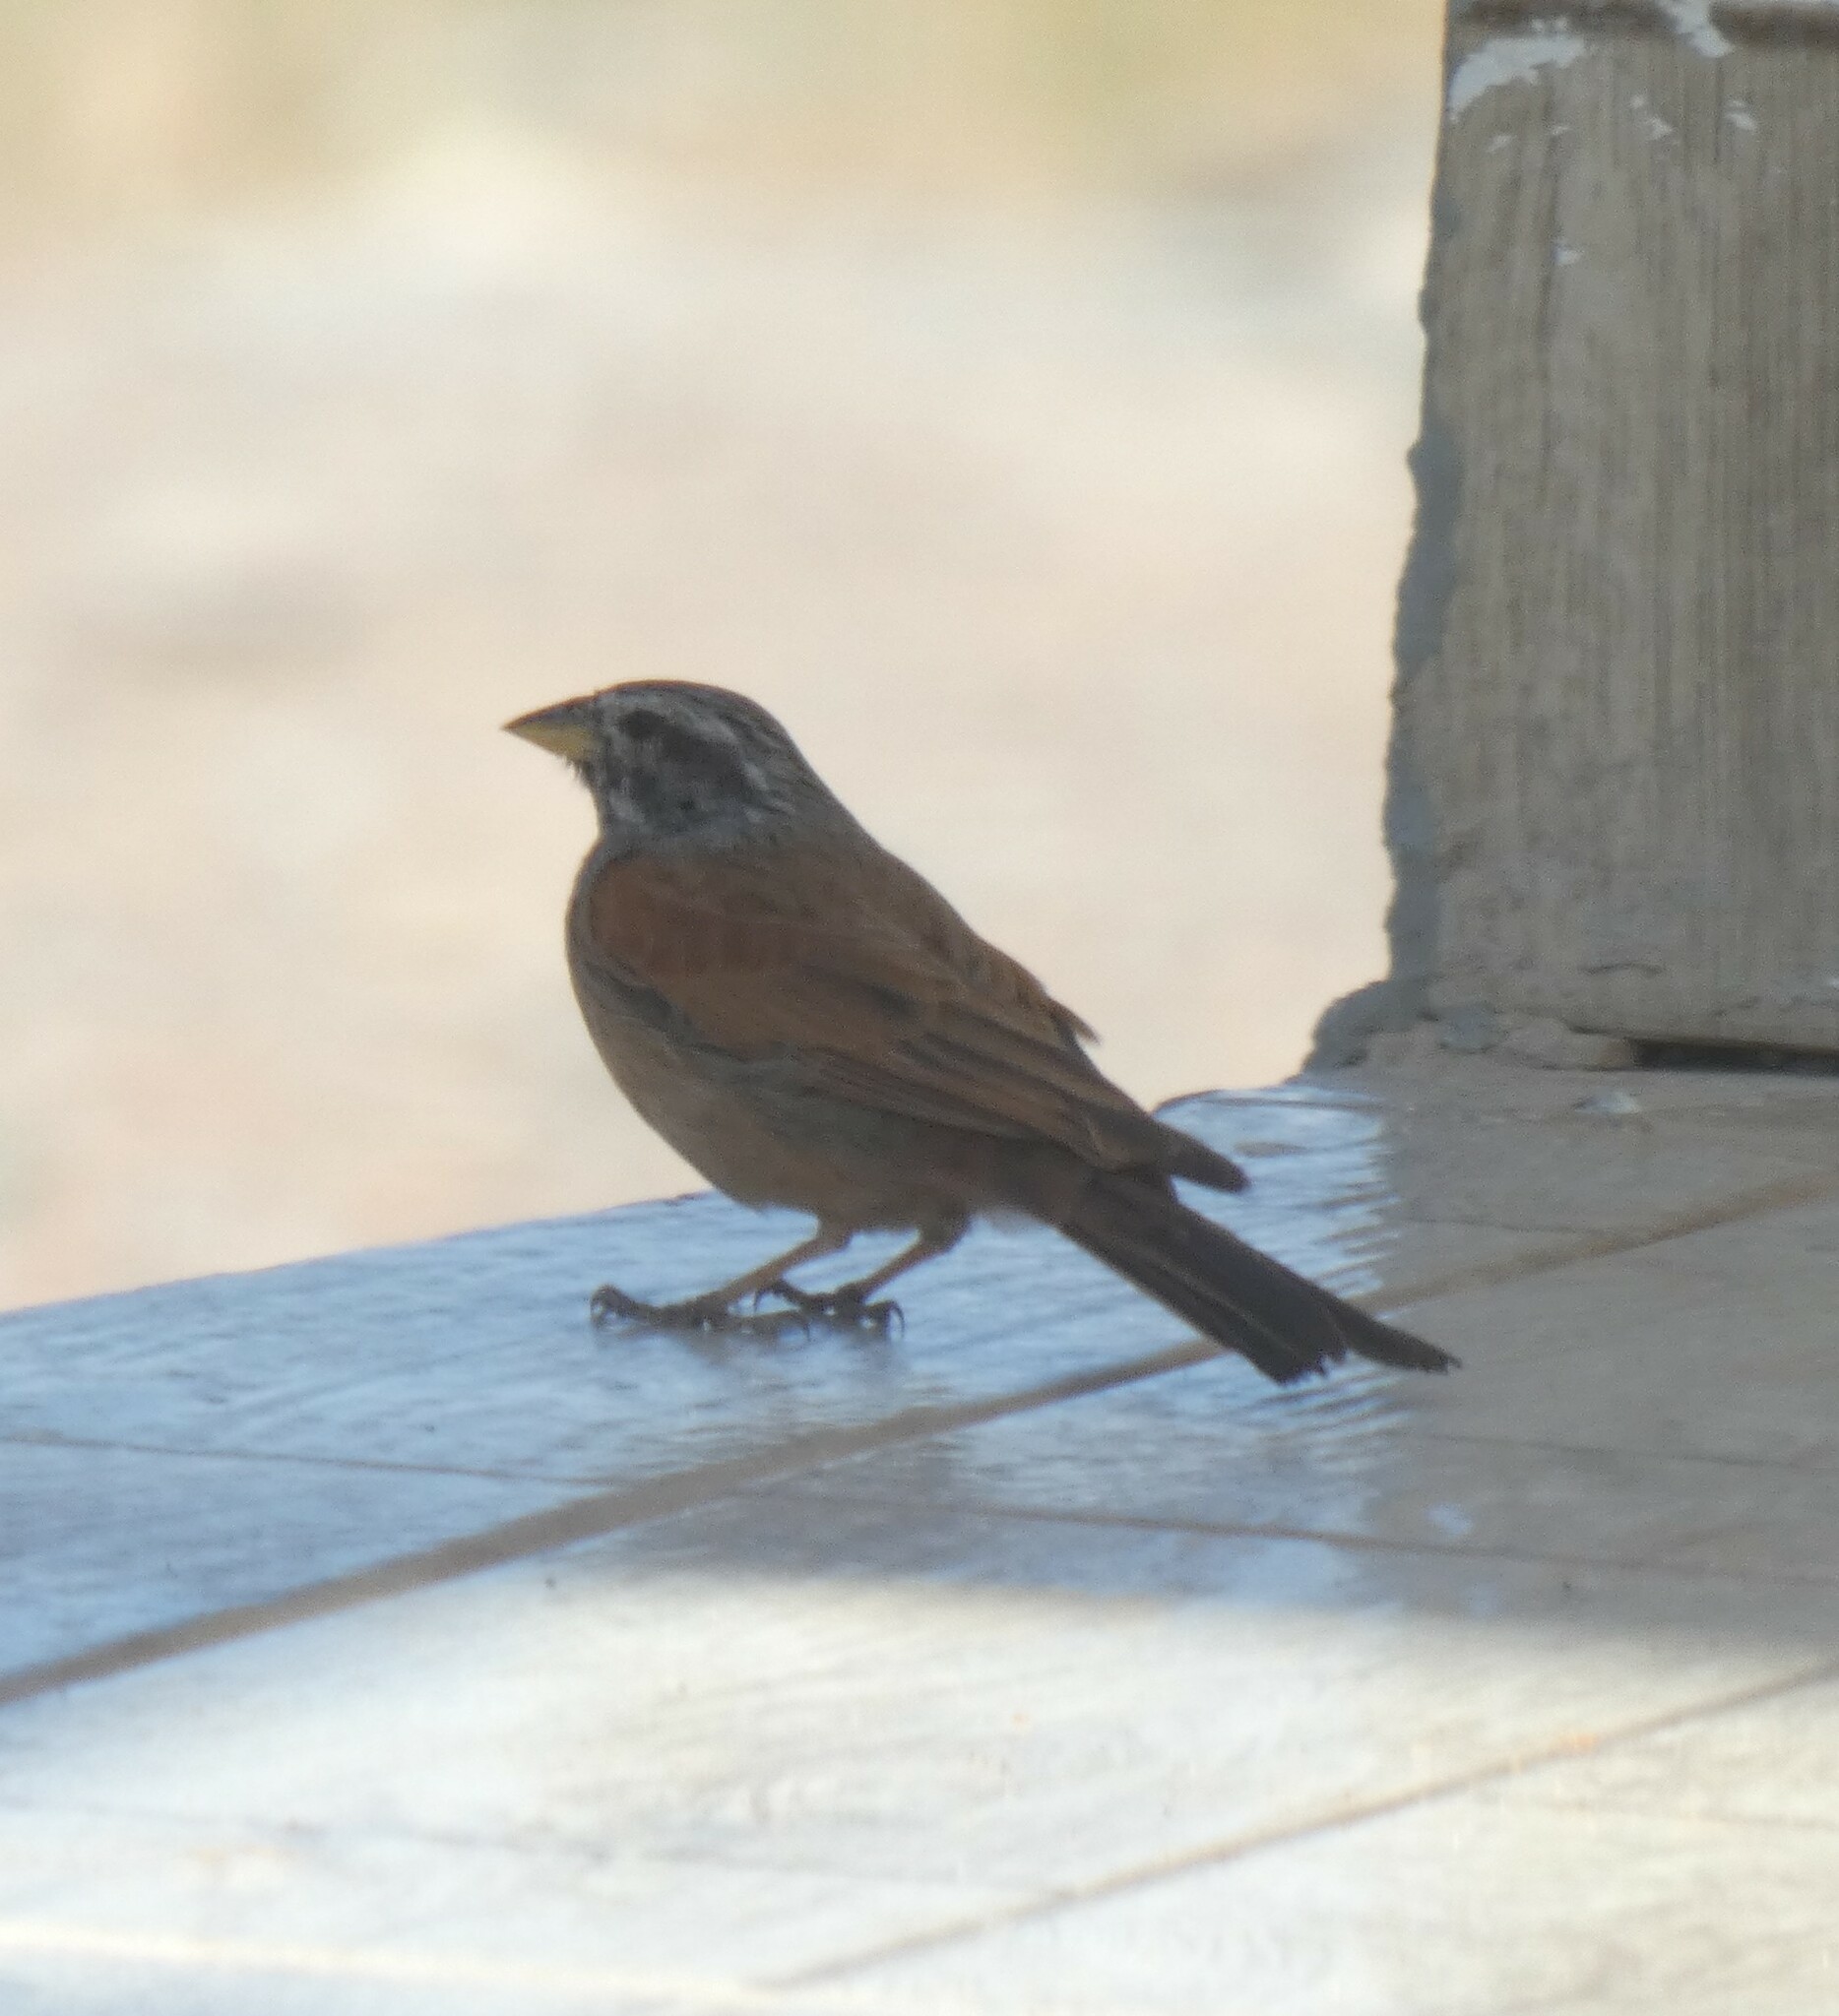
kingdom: Animalia
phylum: Chordata
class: Aves
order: Passeriformes
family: Emberizidae
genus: Emberiza
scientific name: Emberiza sahari
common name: House bunting
